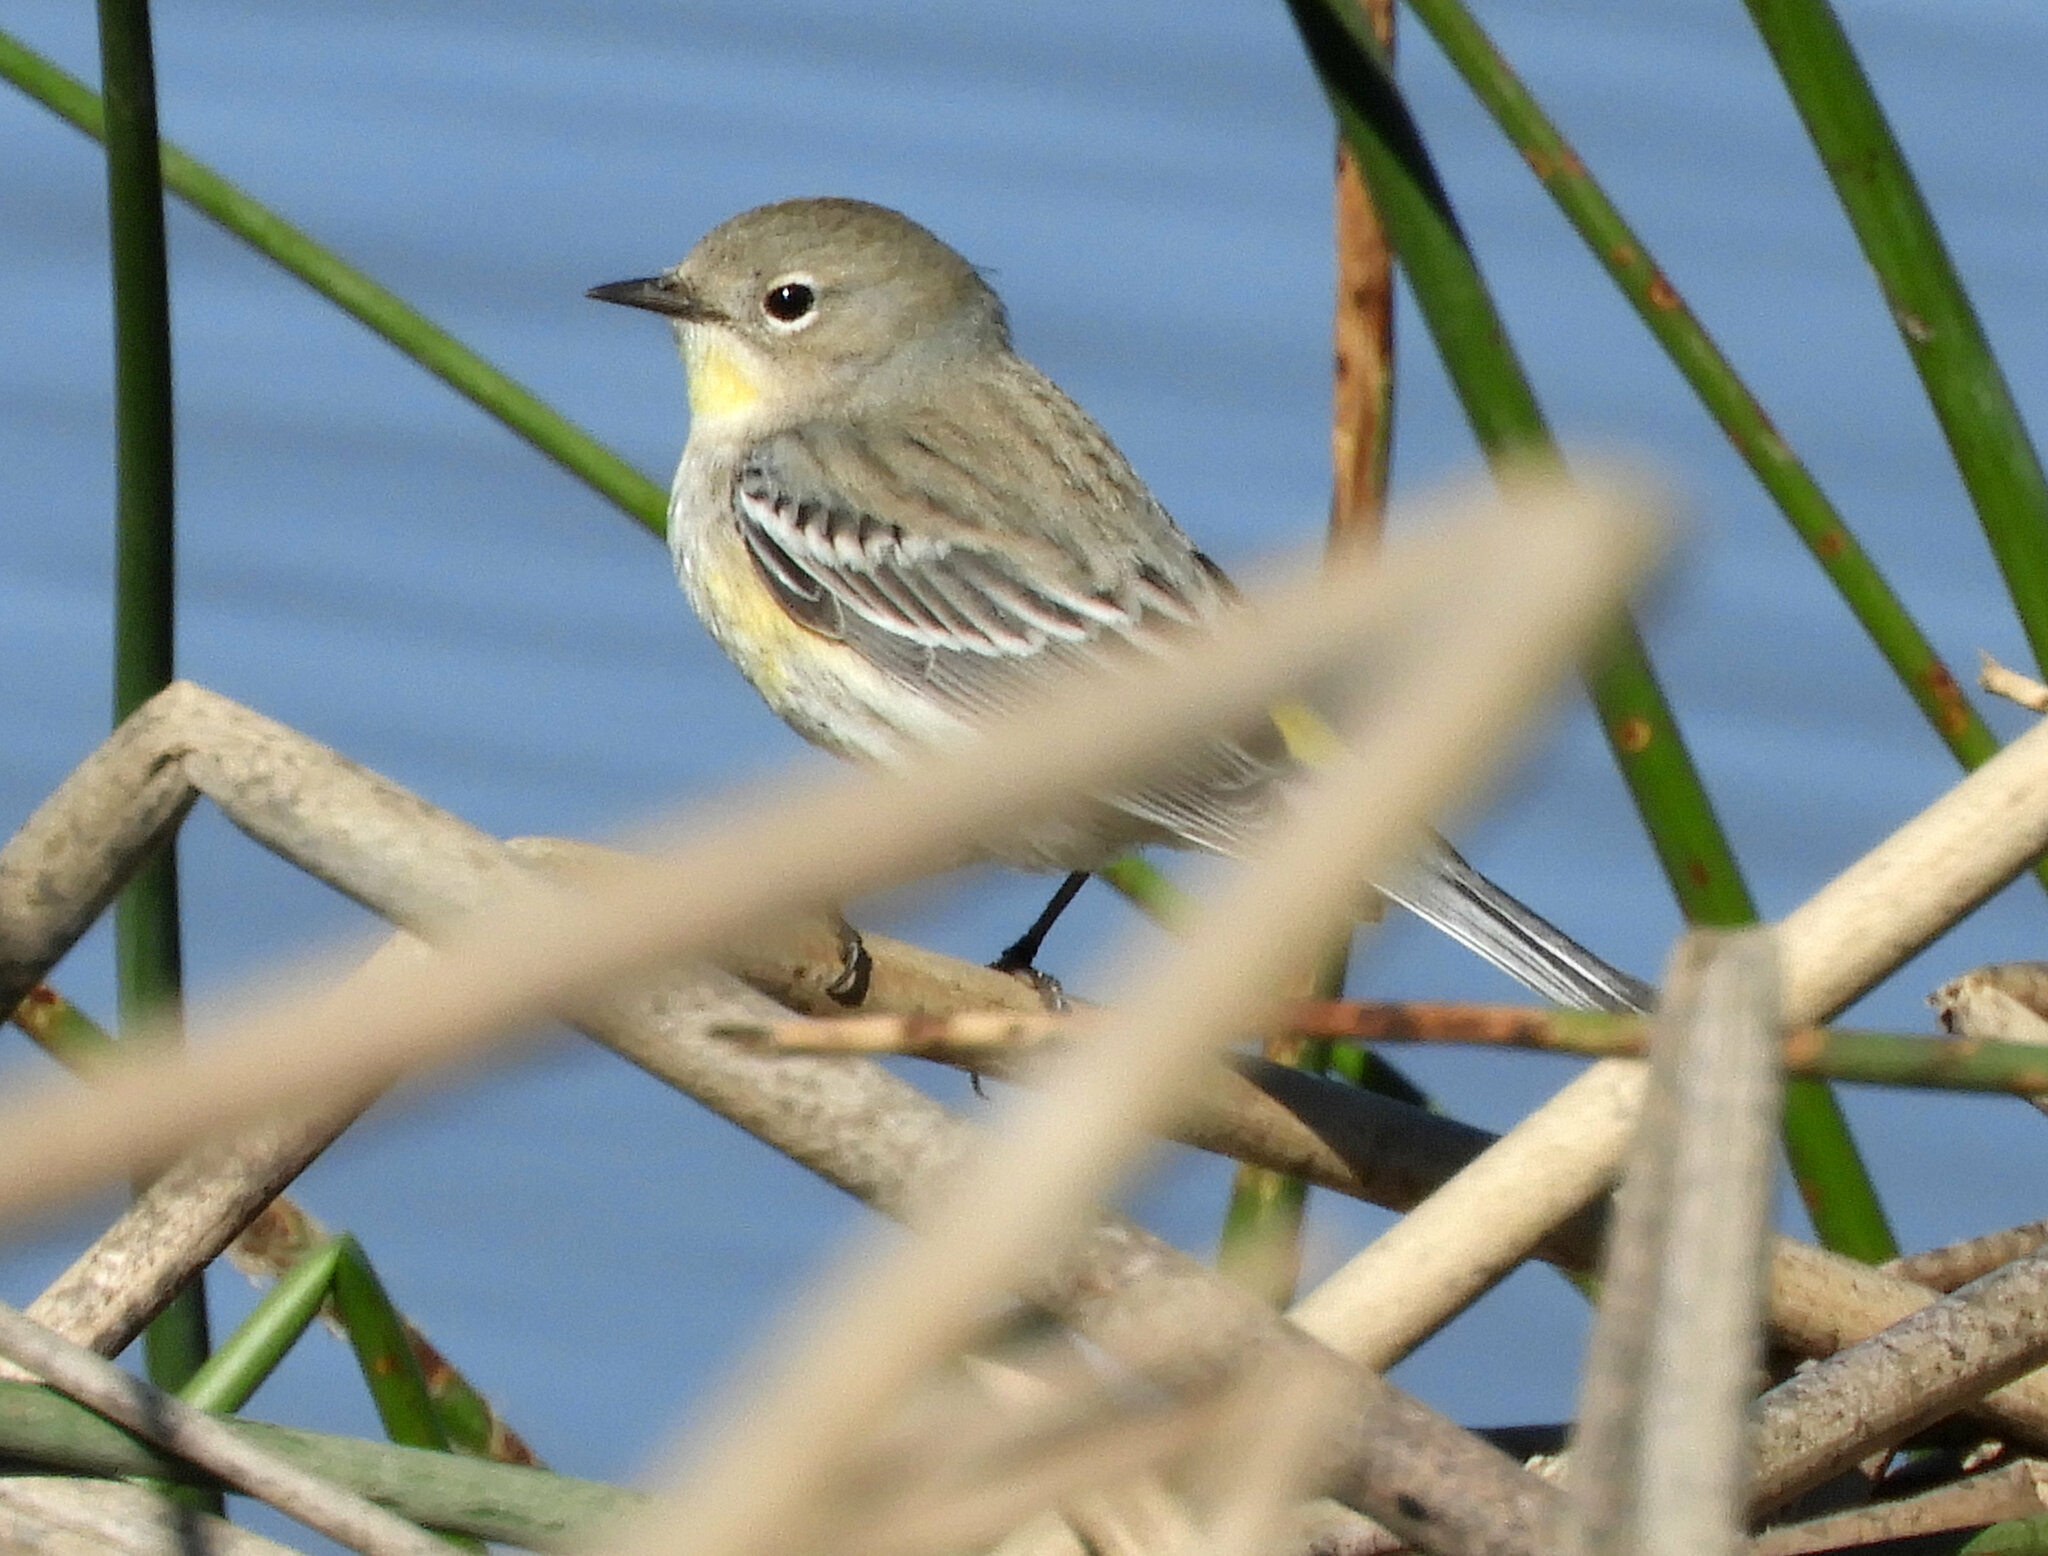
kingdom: Animalia
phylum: Chordata
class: Aves
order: Passeriformes
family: Parulidae
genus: Setophaga
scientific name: Setophaga auduboni
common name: Audubon's warbler
